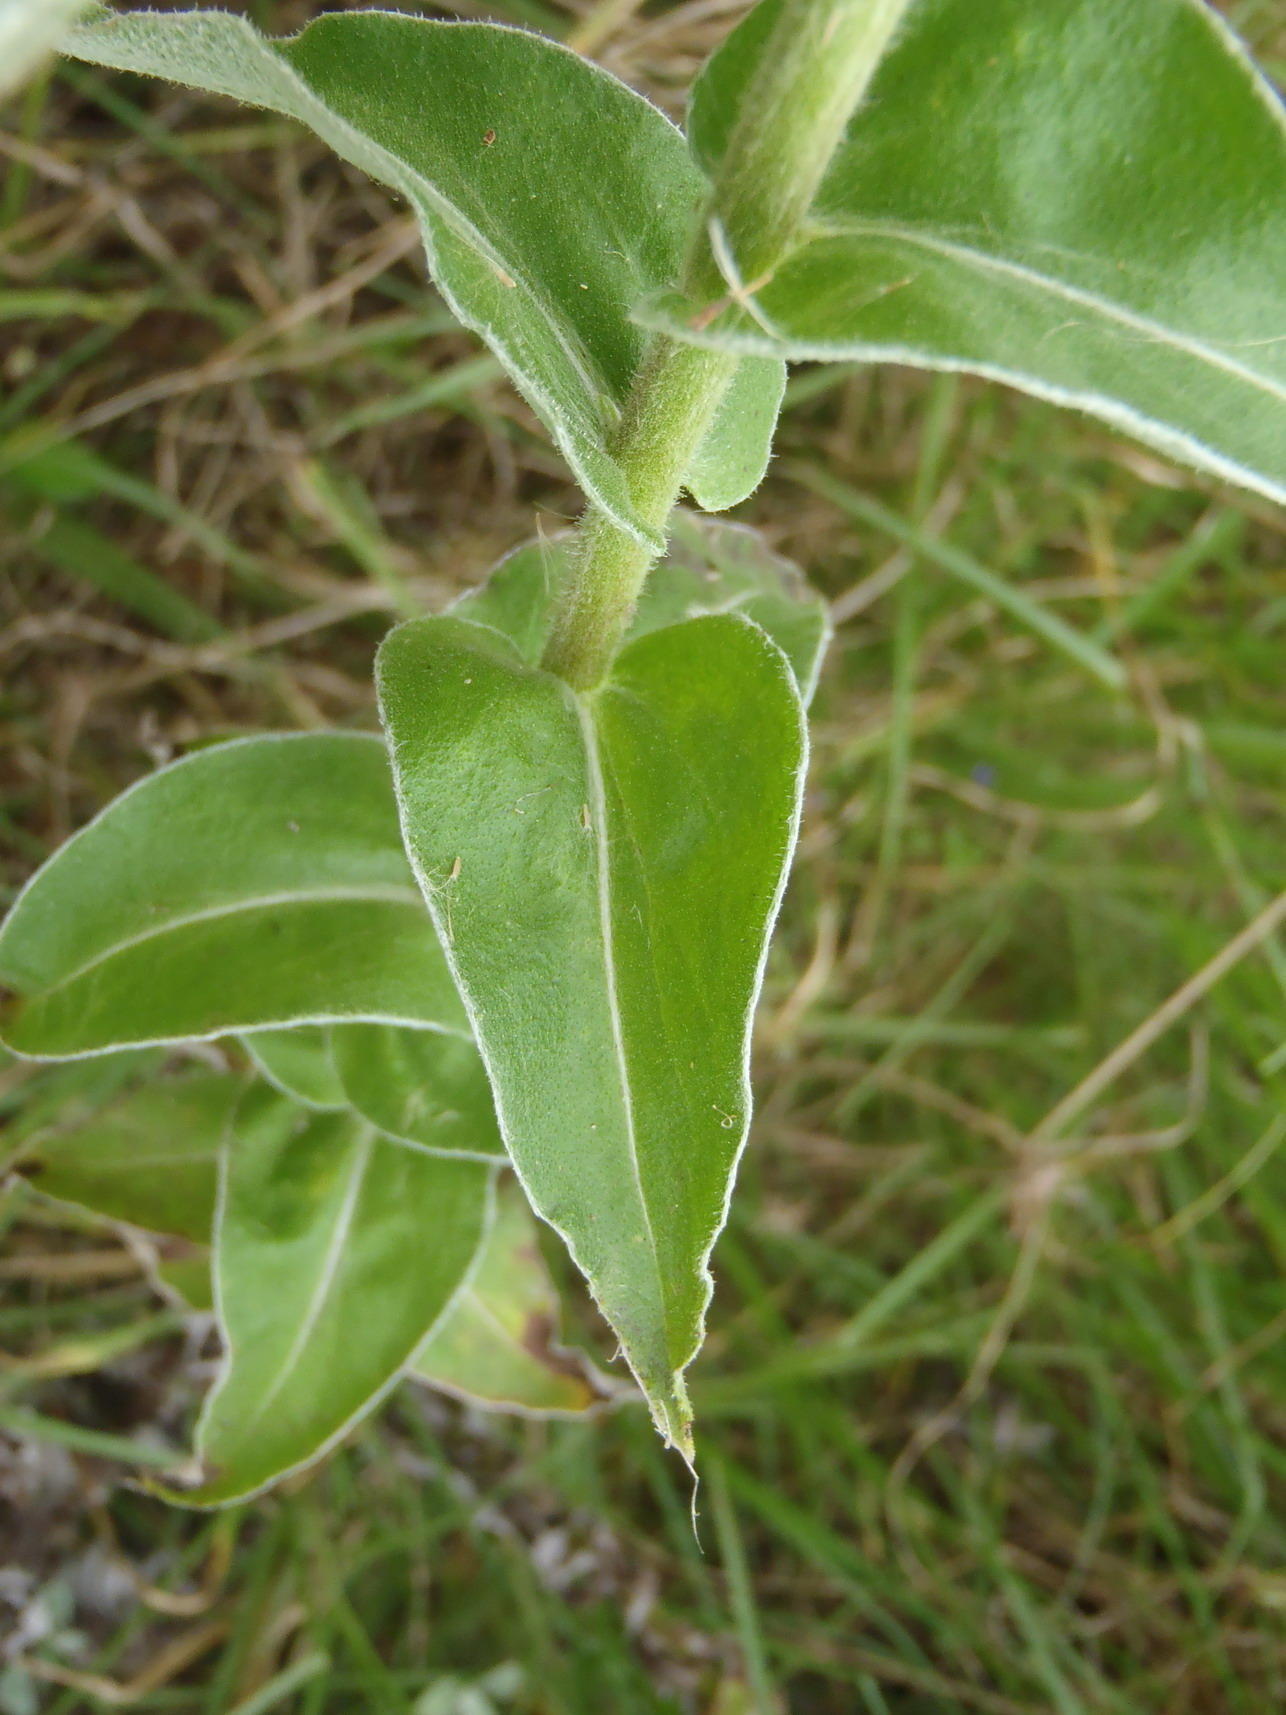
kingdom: Plantae
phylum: Tracheophyta
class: Magnoliopsida
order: Asterales
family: Asteraceae
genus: Helichrysum
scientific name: Helichrysum foetidum
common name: Stinking everlasting
